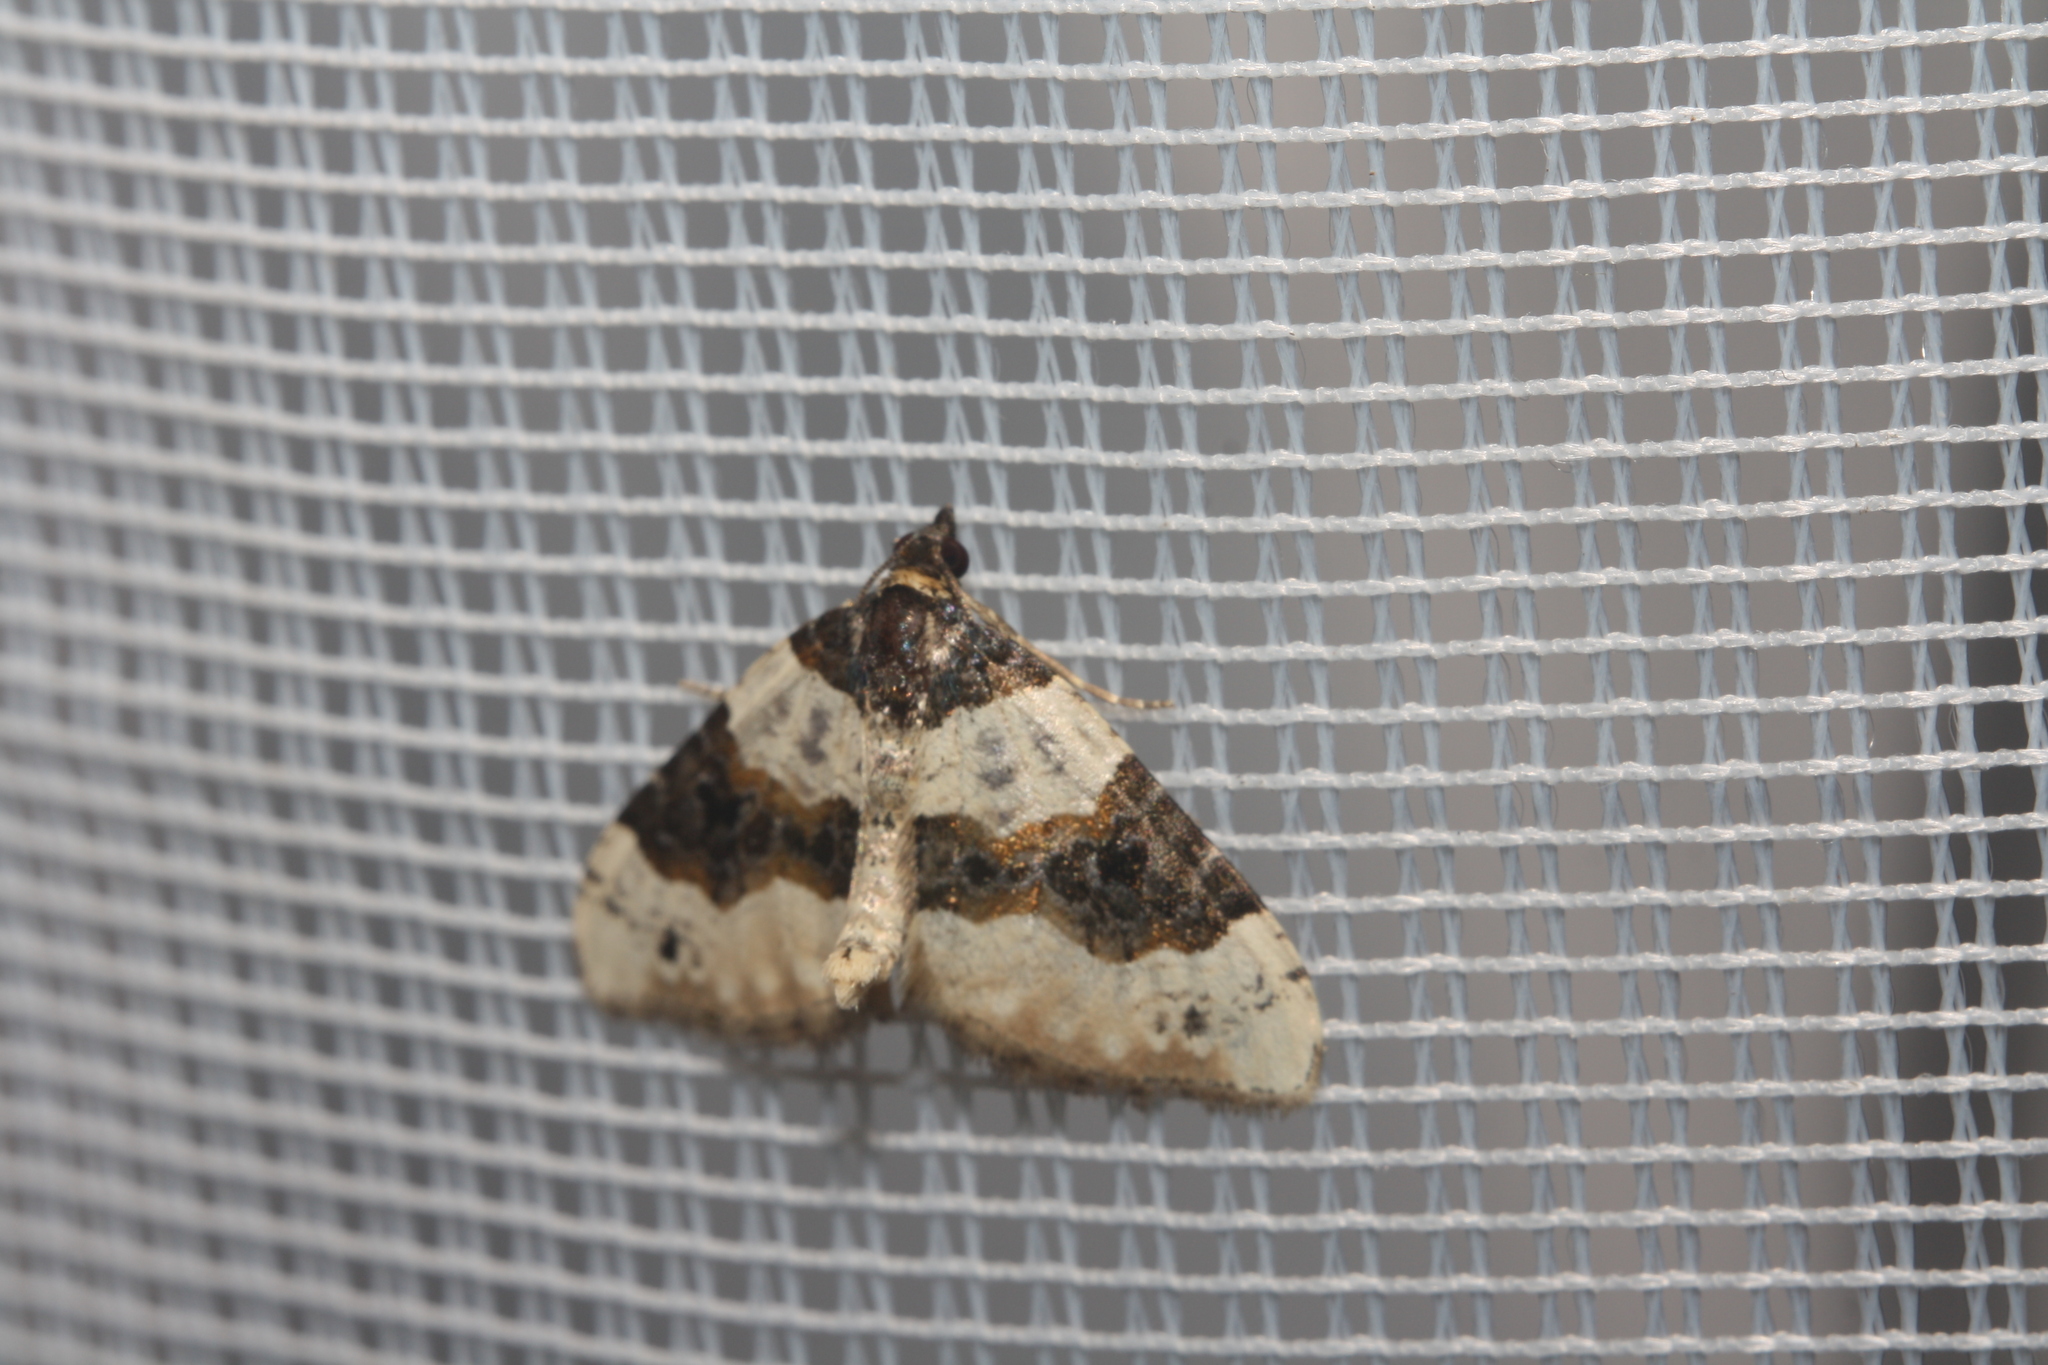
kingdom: Animalia
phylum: Arthropoda
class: Insecta
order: Lepidoptera
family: Geometridae
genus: Cosmorhoe
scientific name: Cosmorhoe ocellata
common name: Purple bar
